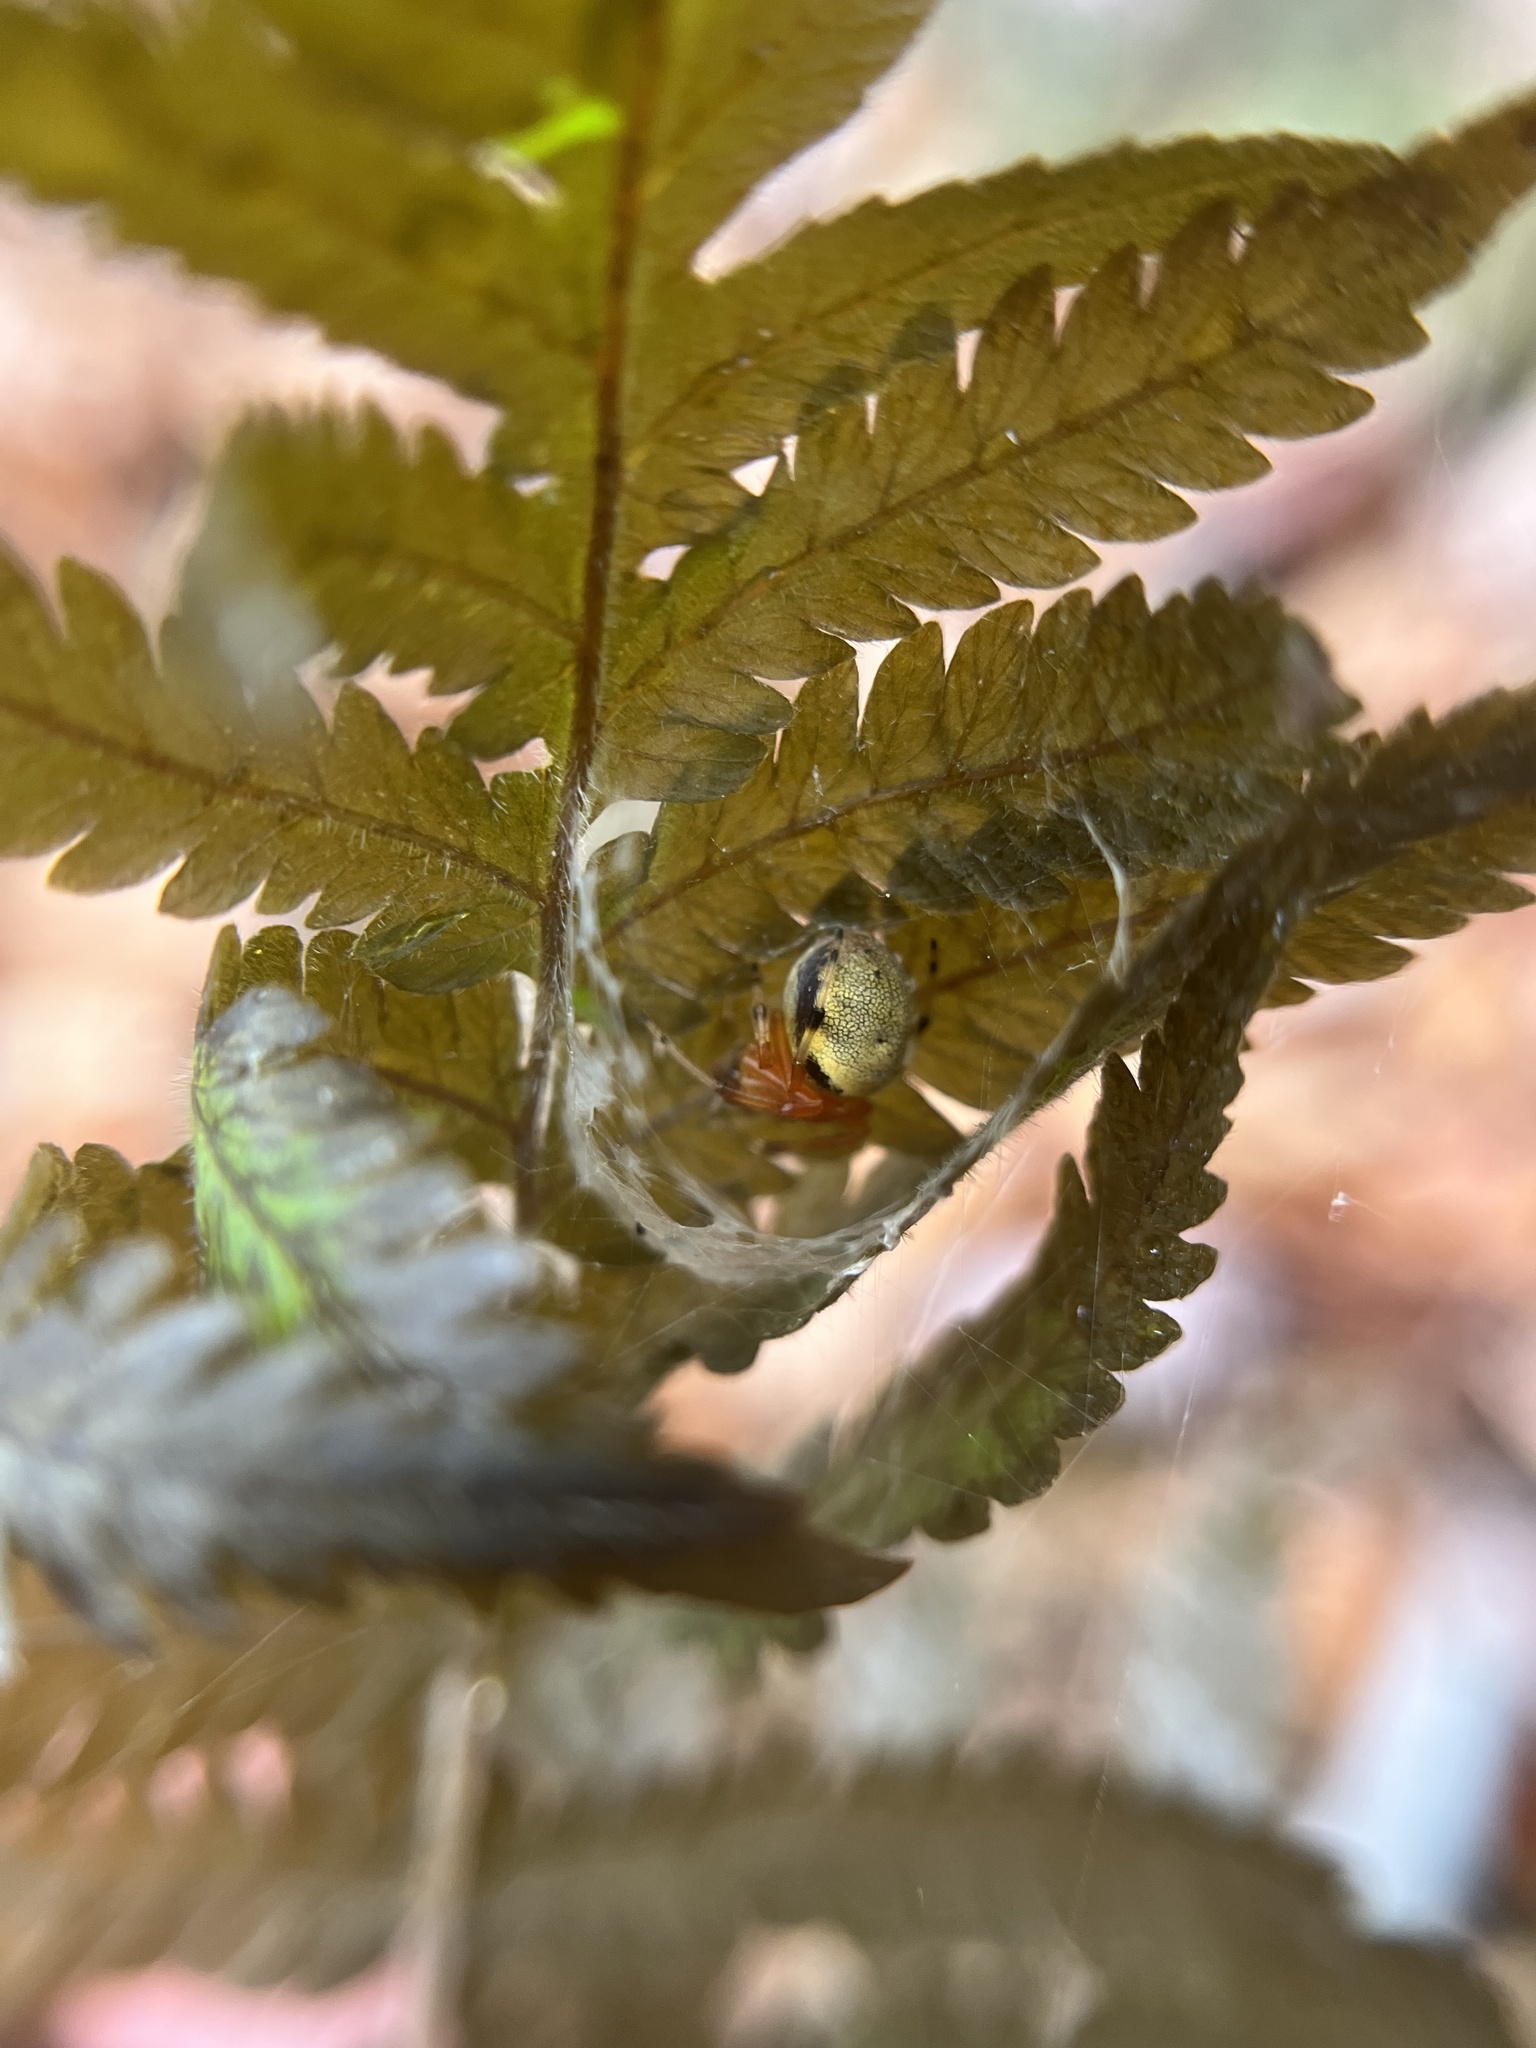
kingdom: Animalia
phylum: Arthropoda
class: Arachnida
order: Araneae
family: Araneidae
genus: Araneus
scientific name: Araneus thaddeus
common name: Lattice orbweaver
